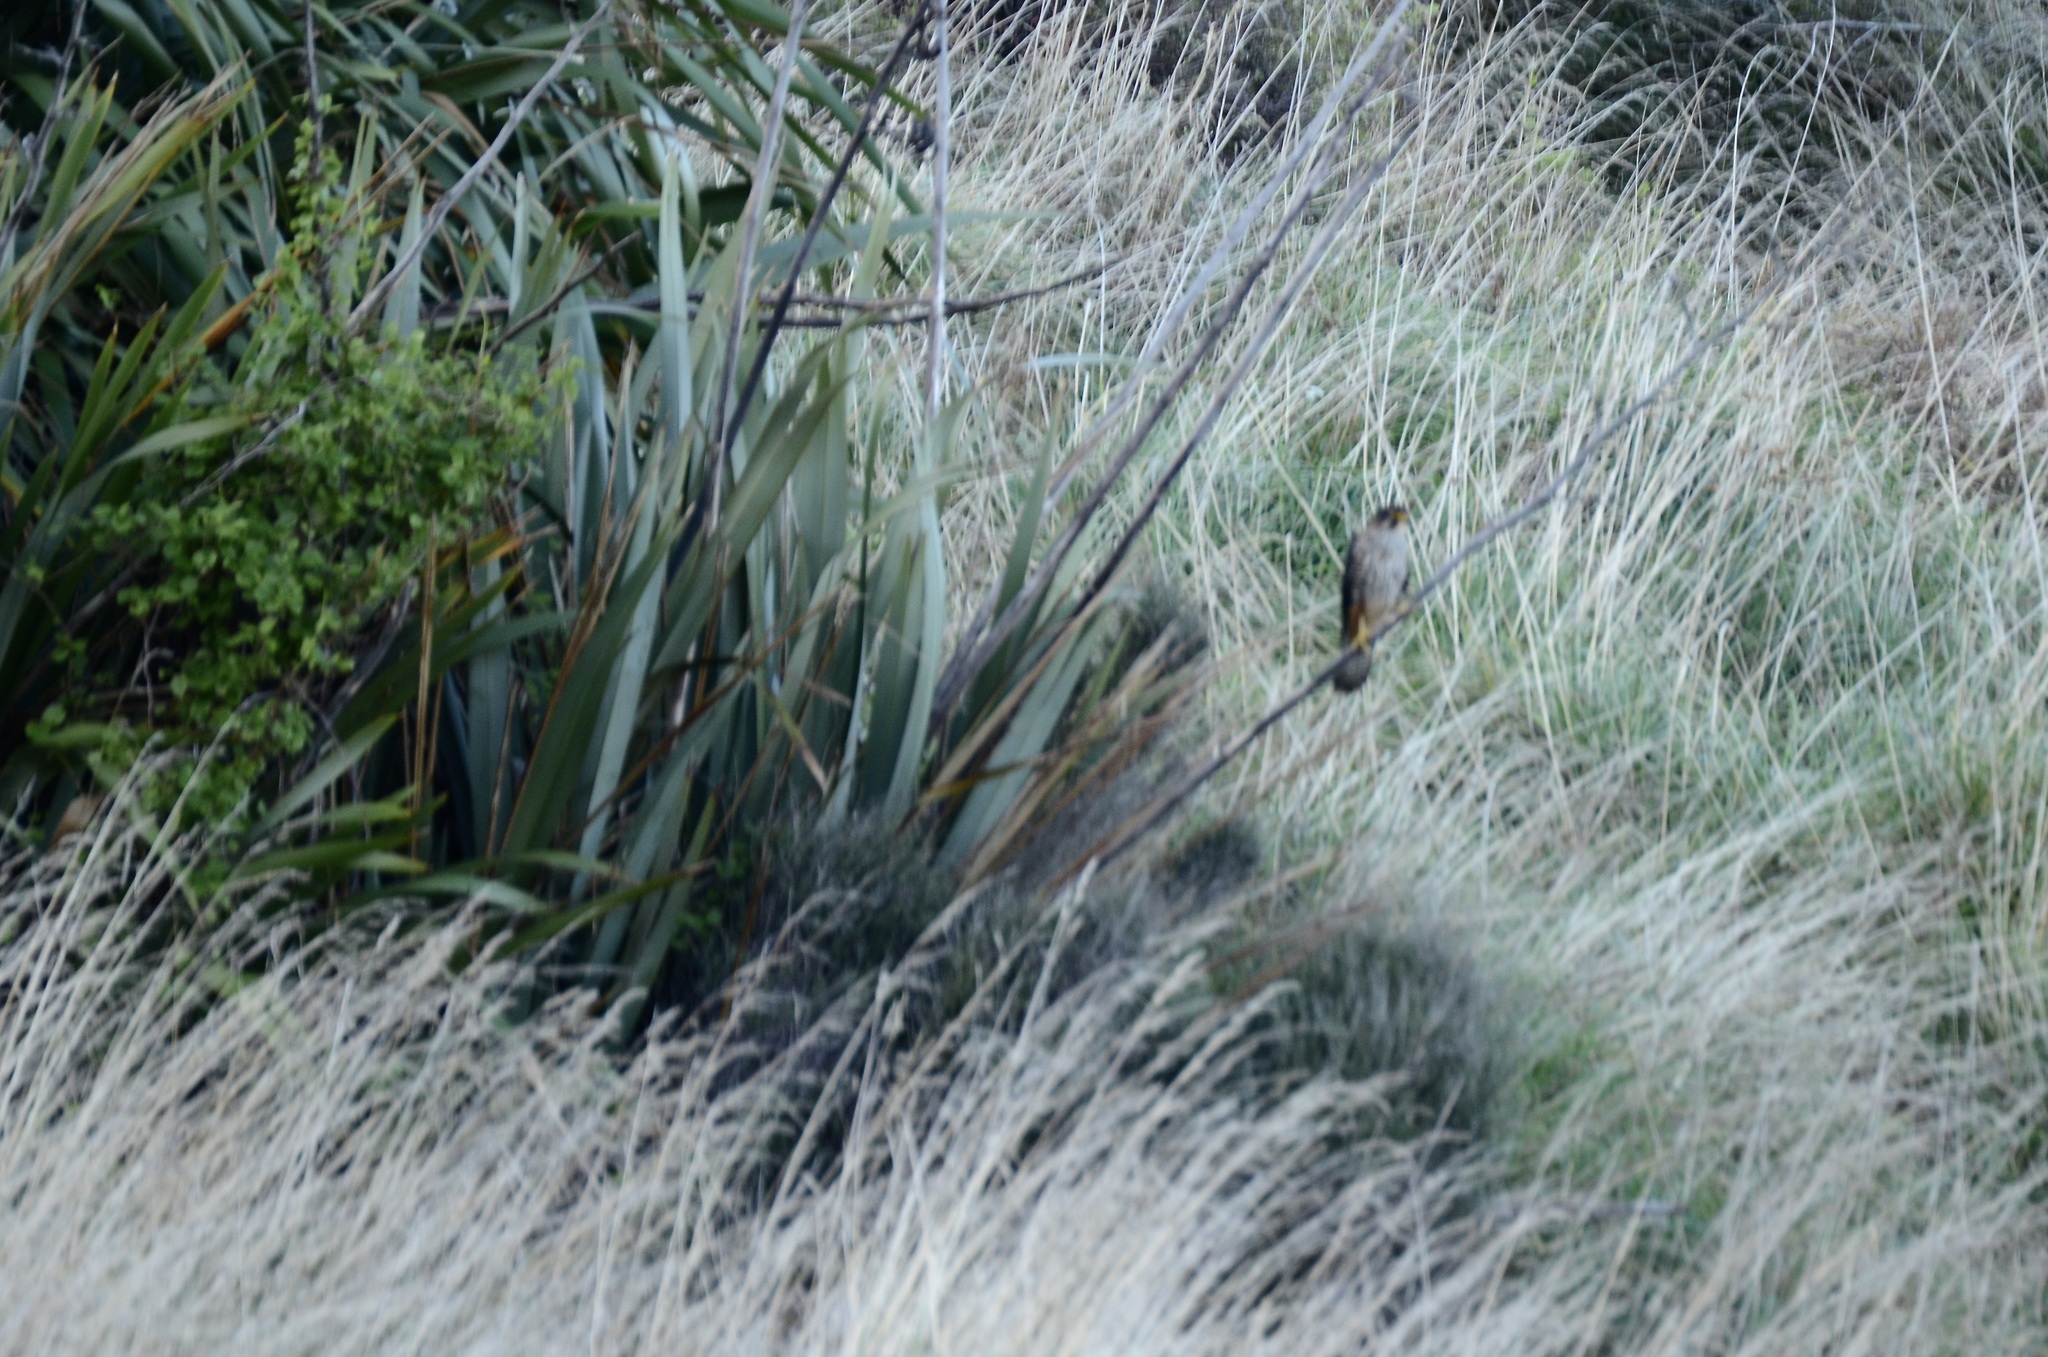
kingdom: Animalia
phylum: Chordata
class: Aves
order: Falconiformes
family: Falconidae
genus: Falco
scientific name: Falco novaeseelandiae
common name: New zealand falcon
